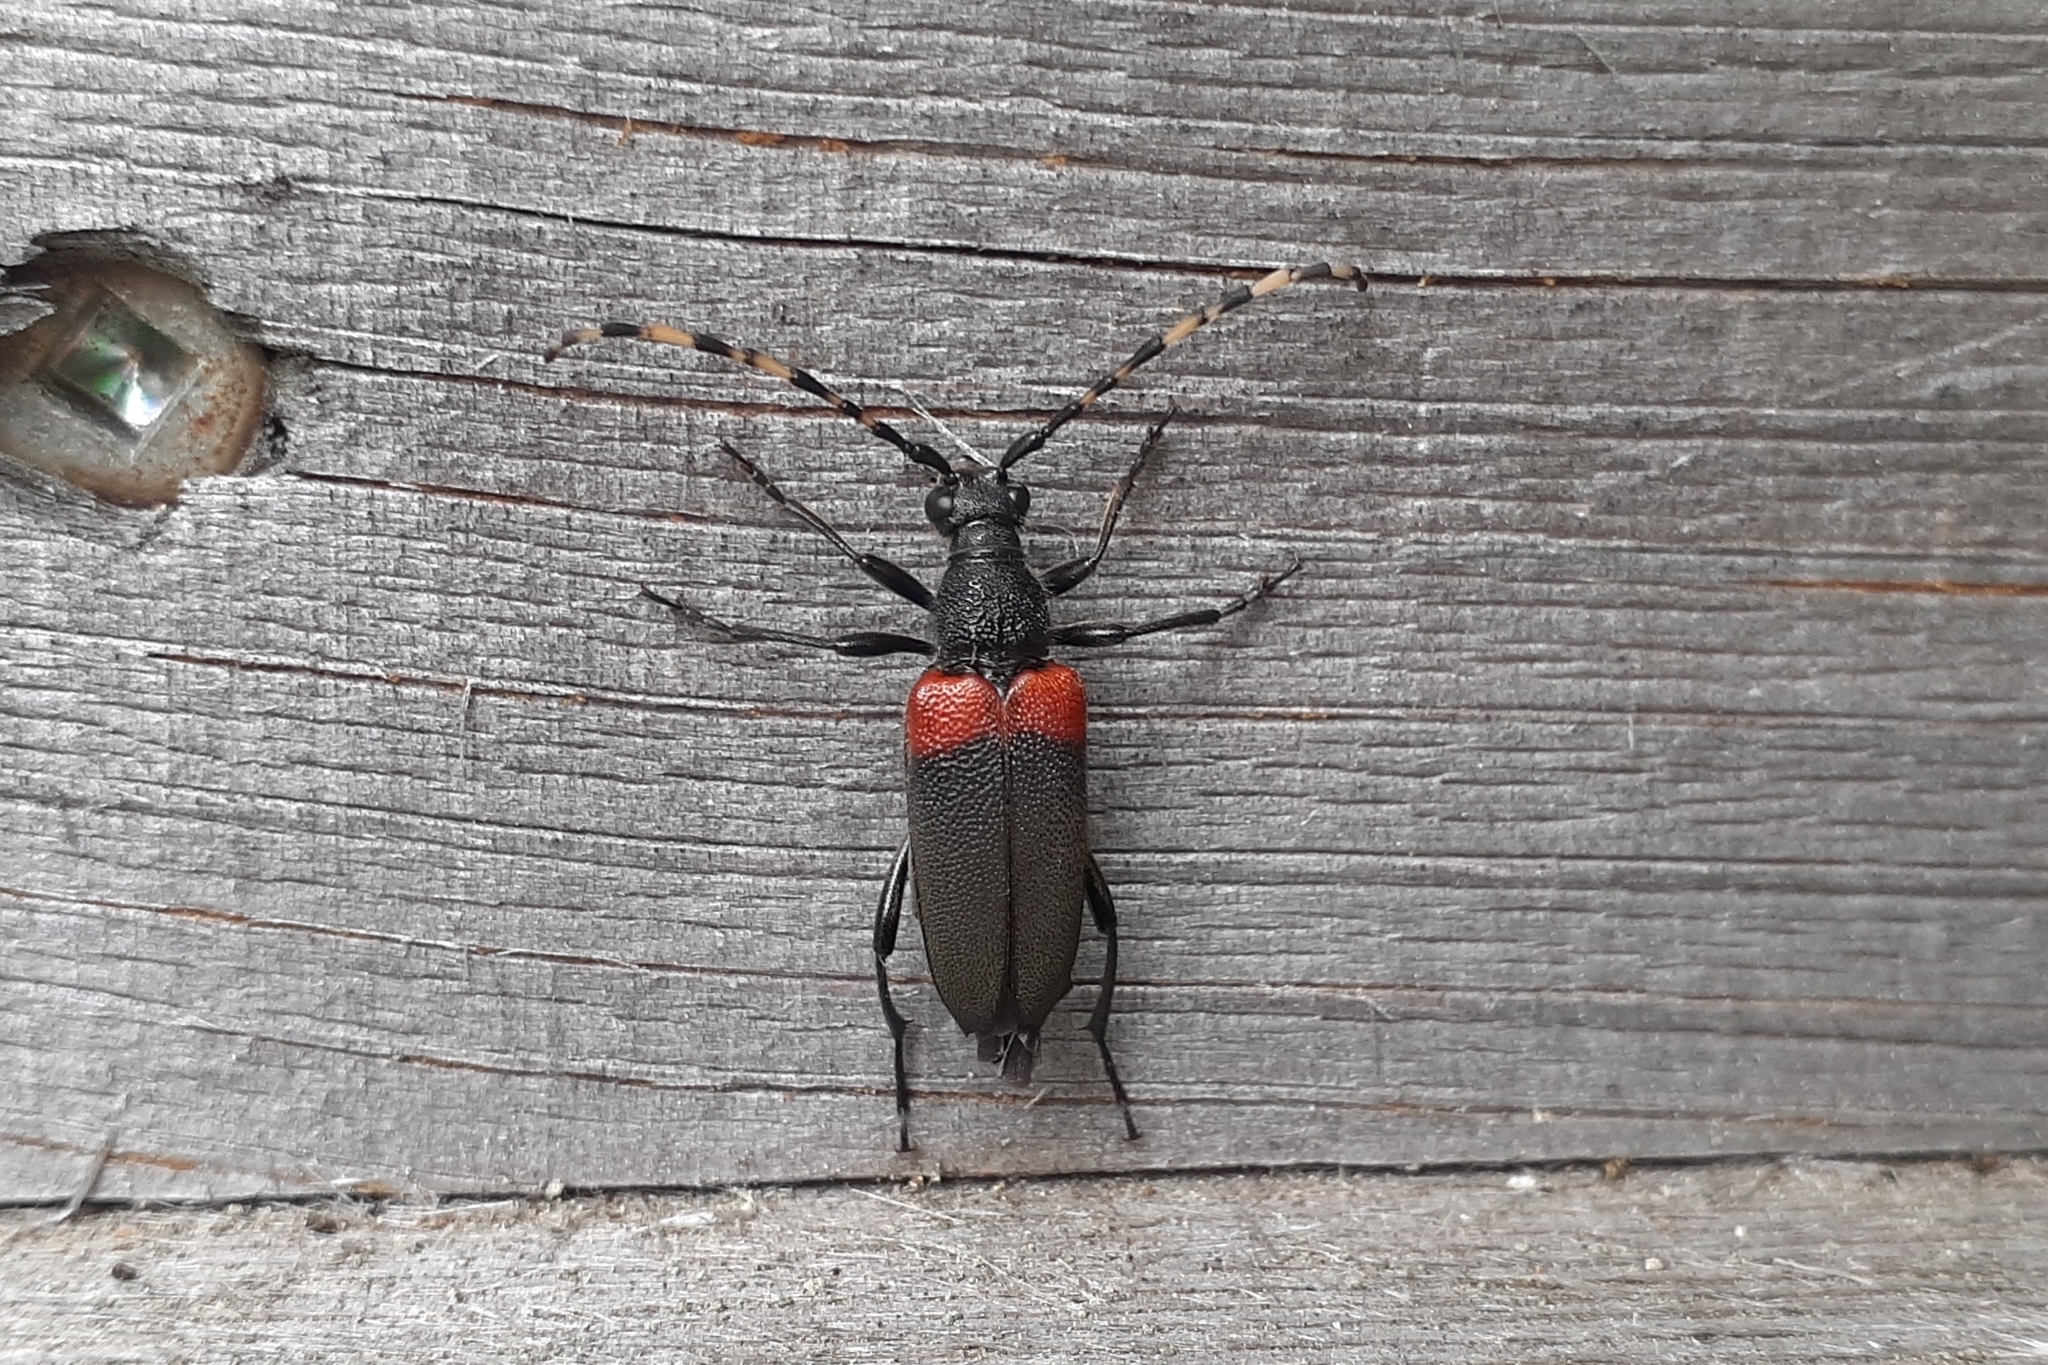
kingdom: Animalia
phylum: Arthropoda
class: Insecta
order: Coleoptera
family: Cerambycidae
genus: Stictoleptura
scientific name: Stictoleptura canadensis
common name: Red-shouldered pine borer
